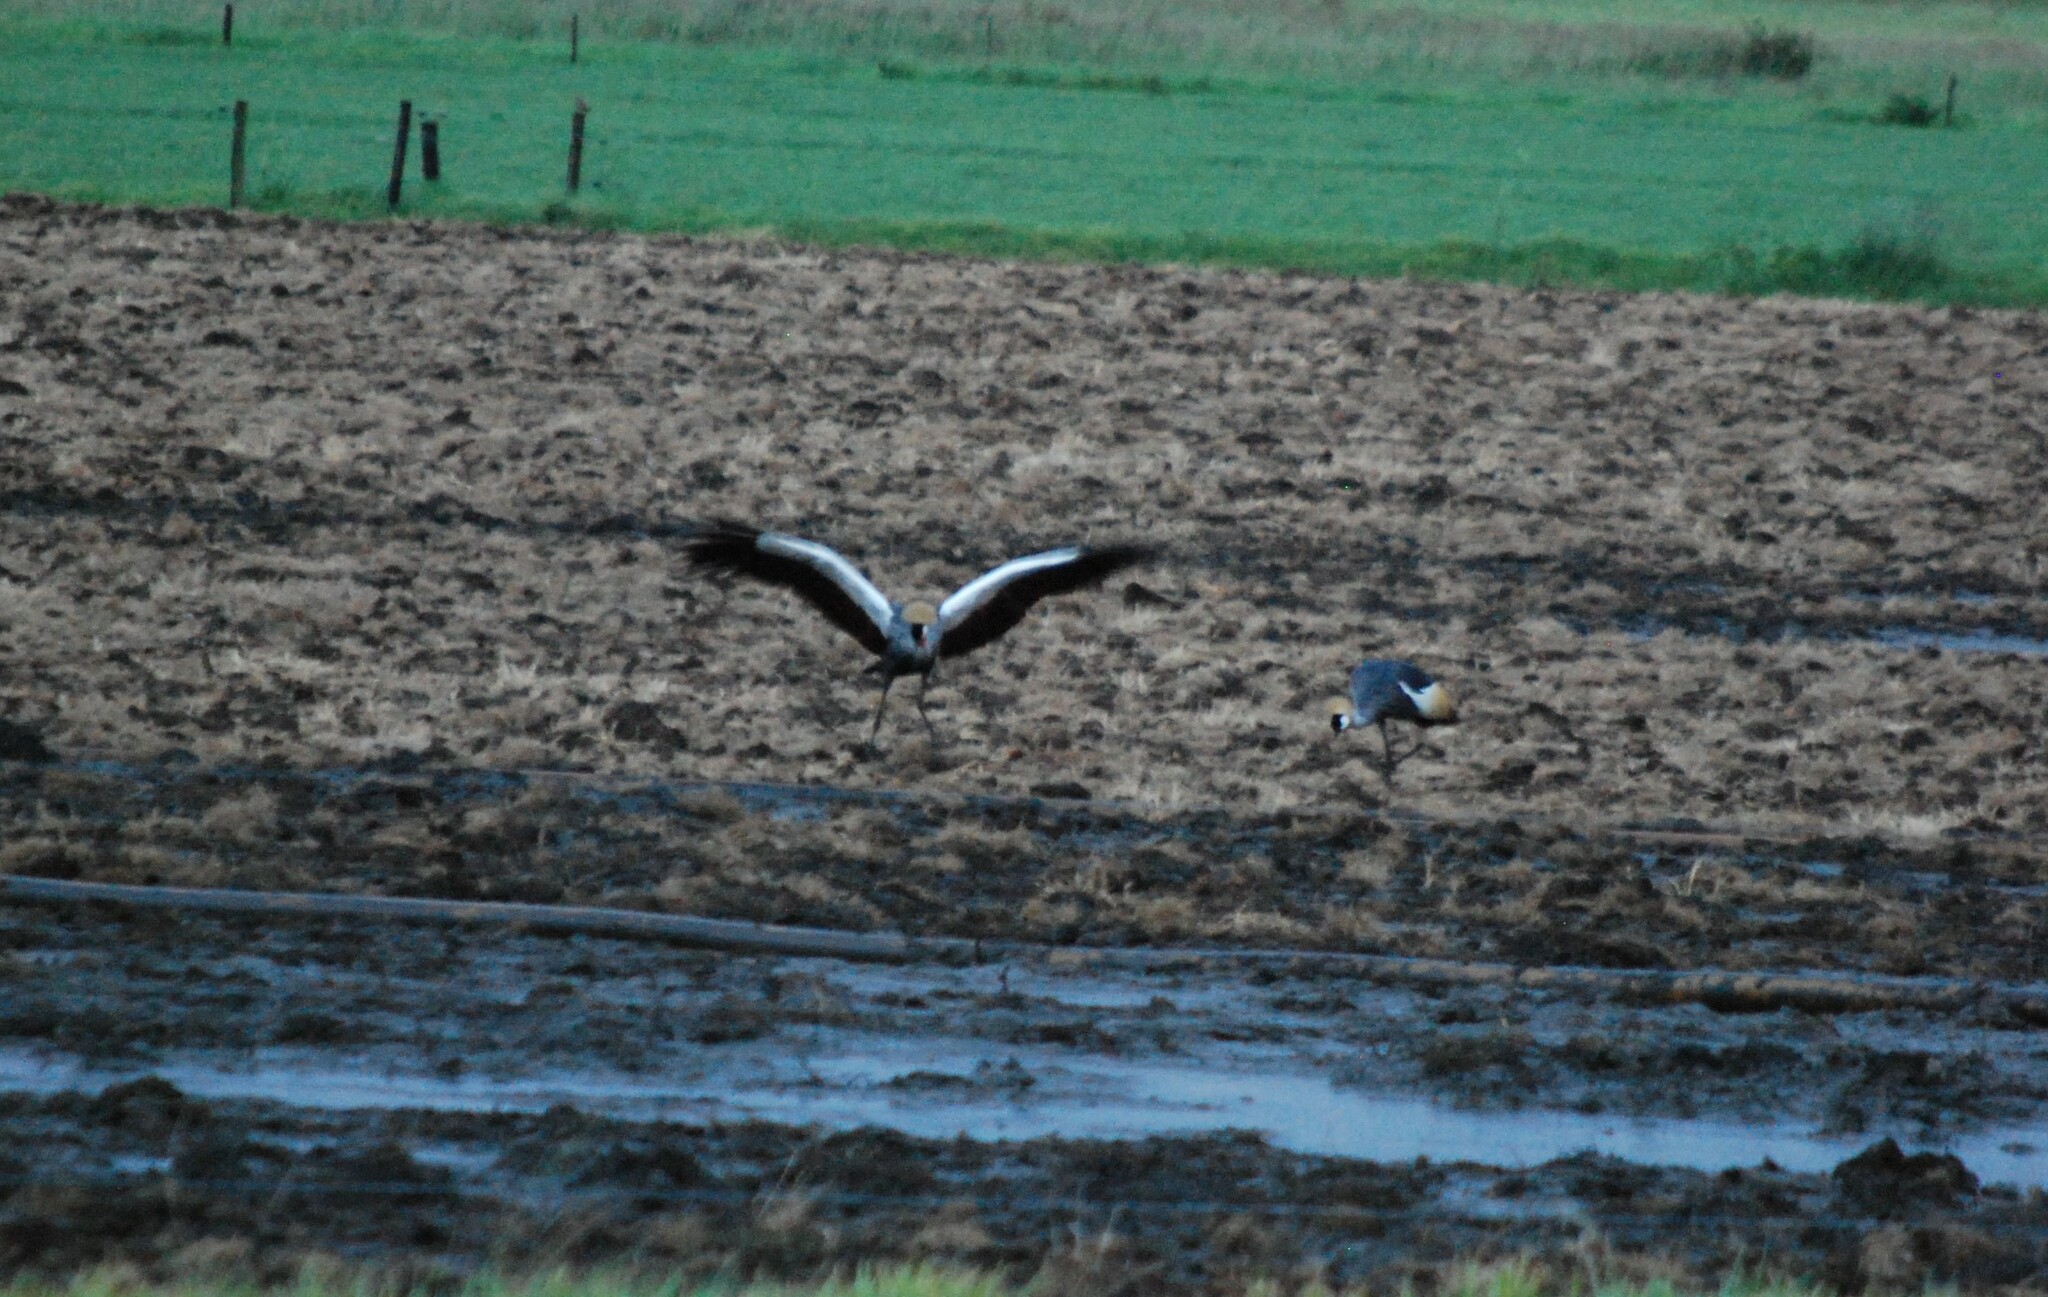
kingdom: Animalia
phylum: Chordata
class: Aves
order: Gruiformes
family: Gruidae
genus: Balearica
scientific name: Balearica regulorum
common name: Grey crowned crane
